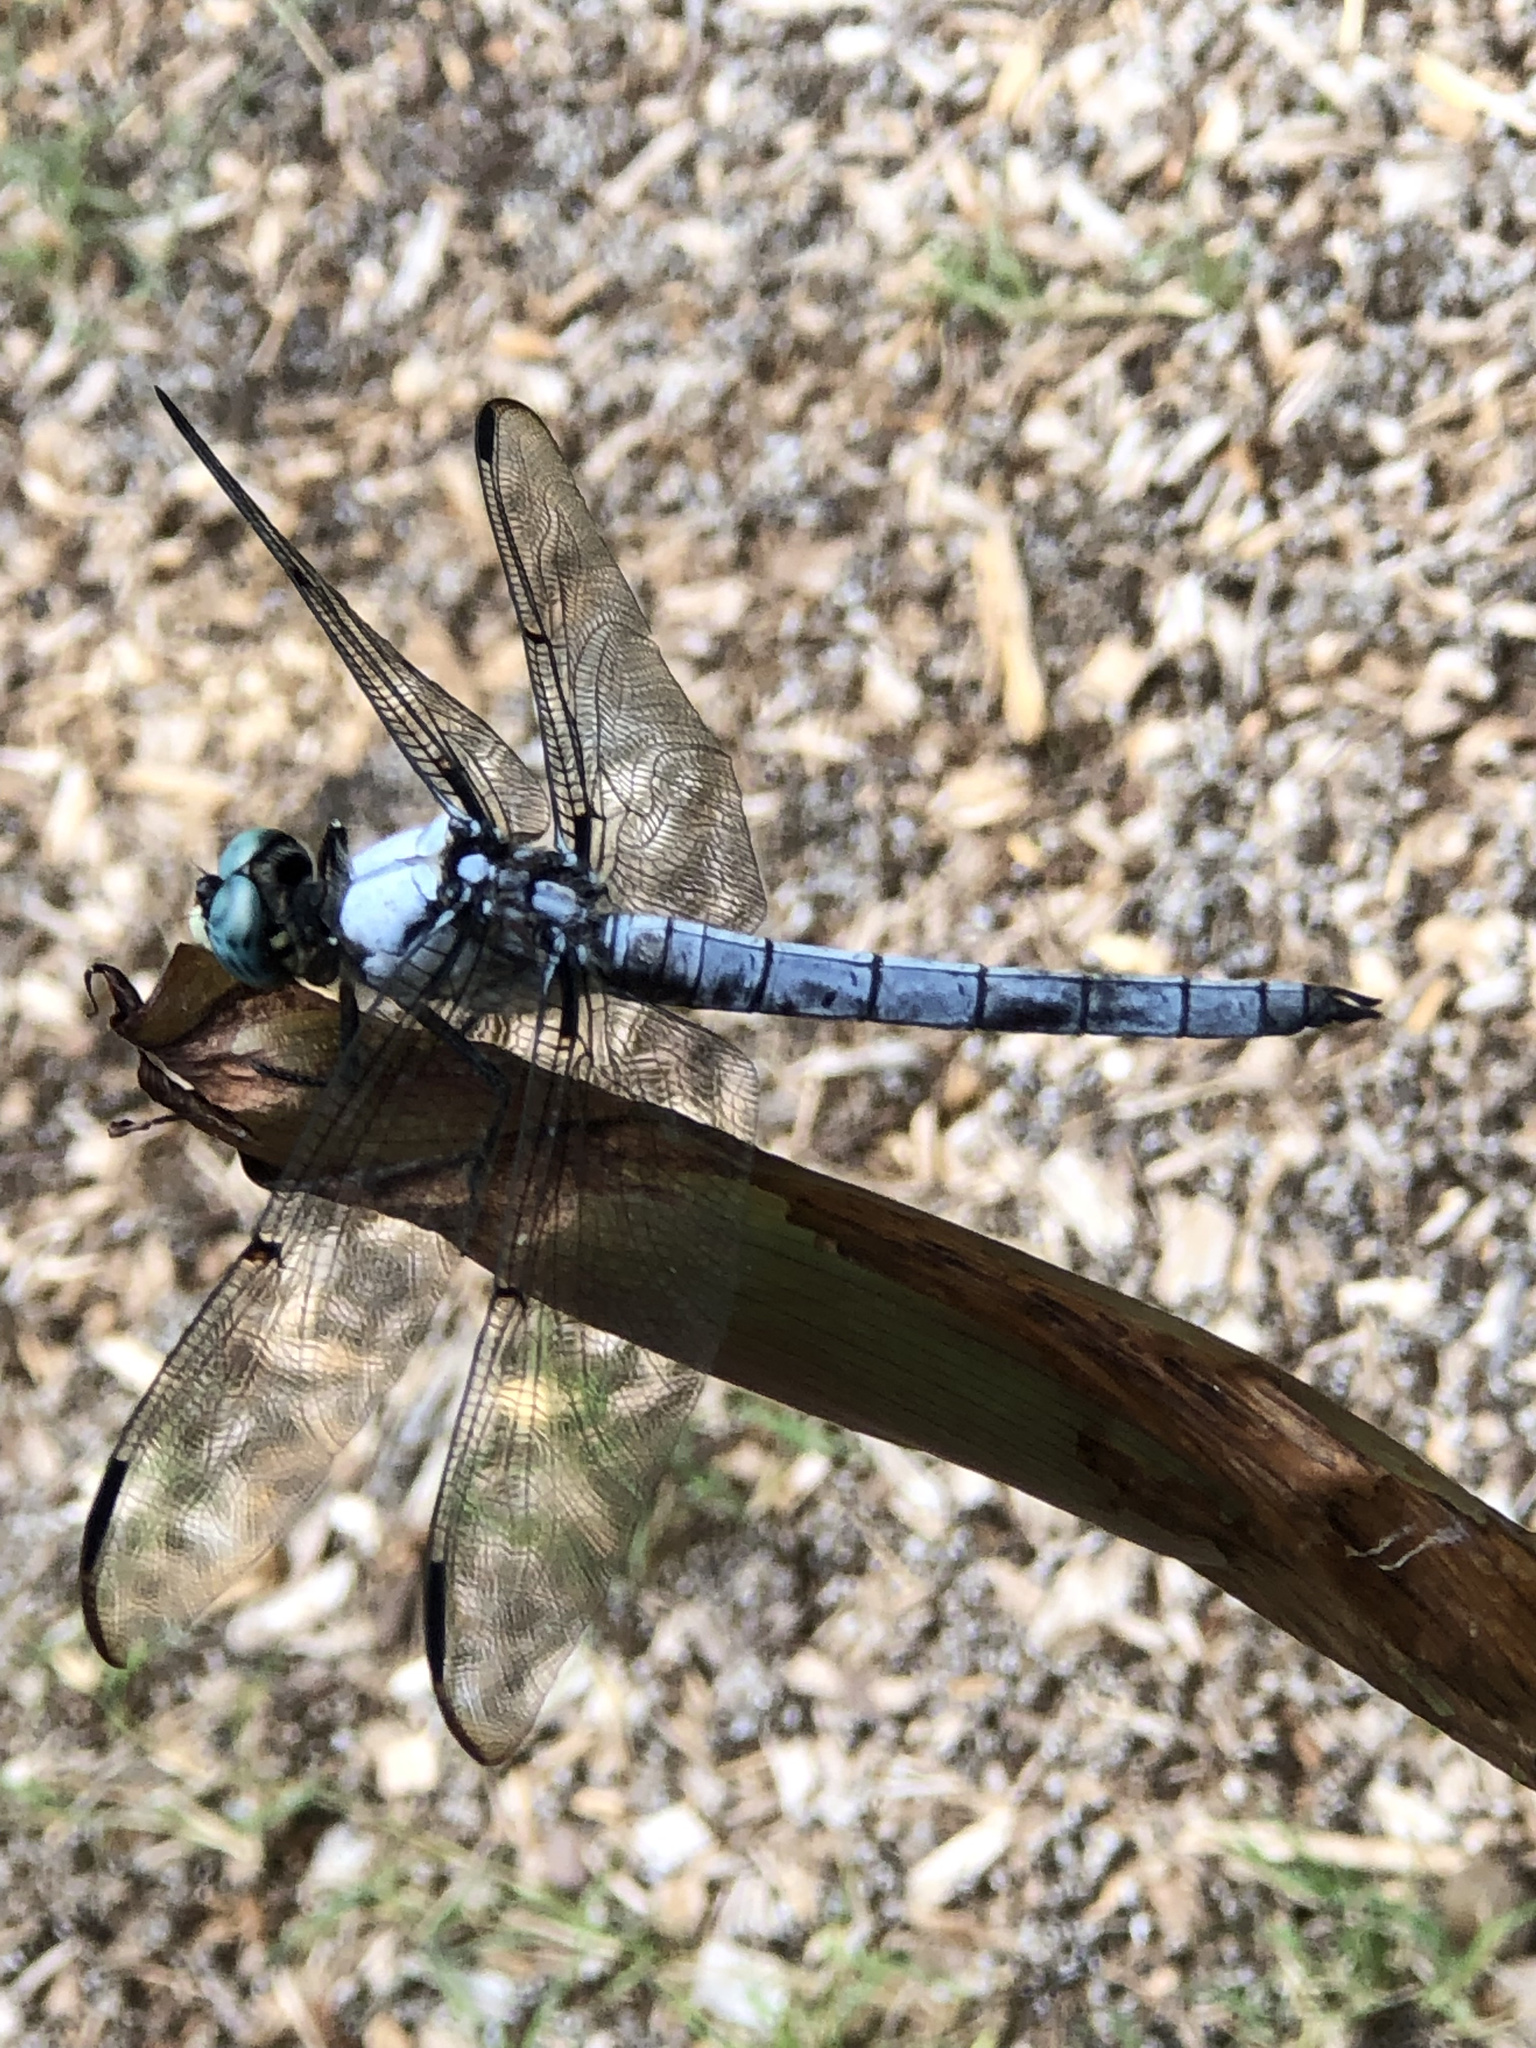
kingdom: Animalia
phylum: Arthropoda
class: Insecta
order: Odonata
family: Libellulidae
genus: Libellula
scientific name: Libellula vibrans
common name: Great blue skimmer
